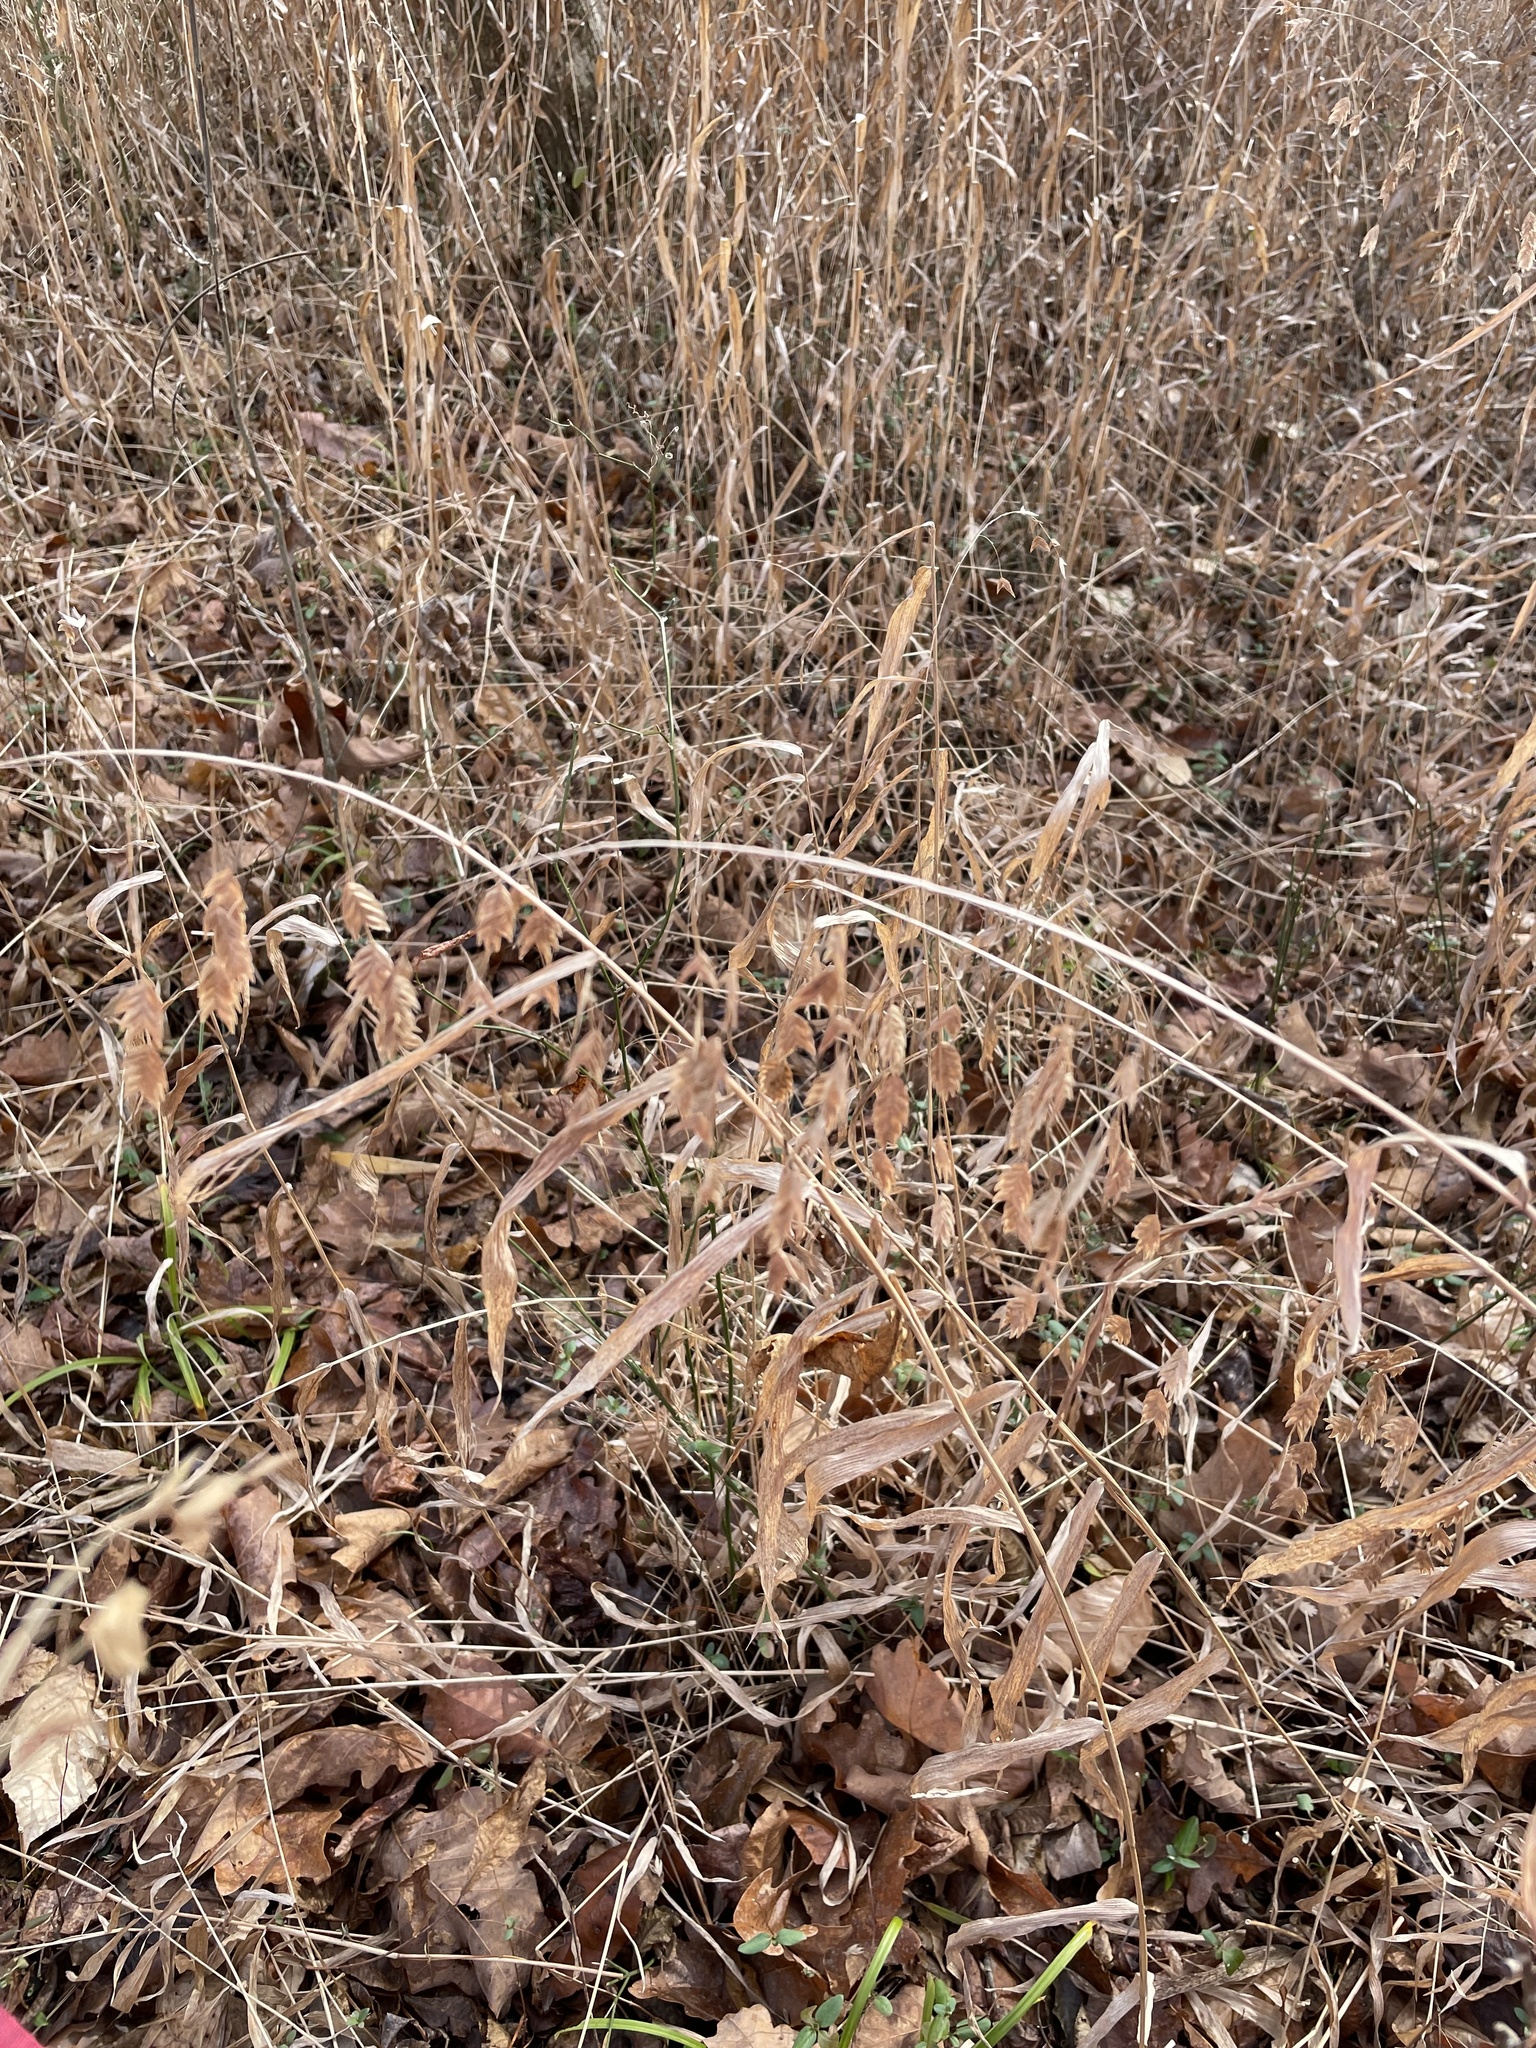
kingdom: Plantae
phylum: Tracheophyta
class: Liliopsida
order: Poales
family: Poaceae
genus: Chasmanthium
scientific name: Chasmanthium latifolium
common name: Broad-leaved chasmanthium
